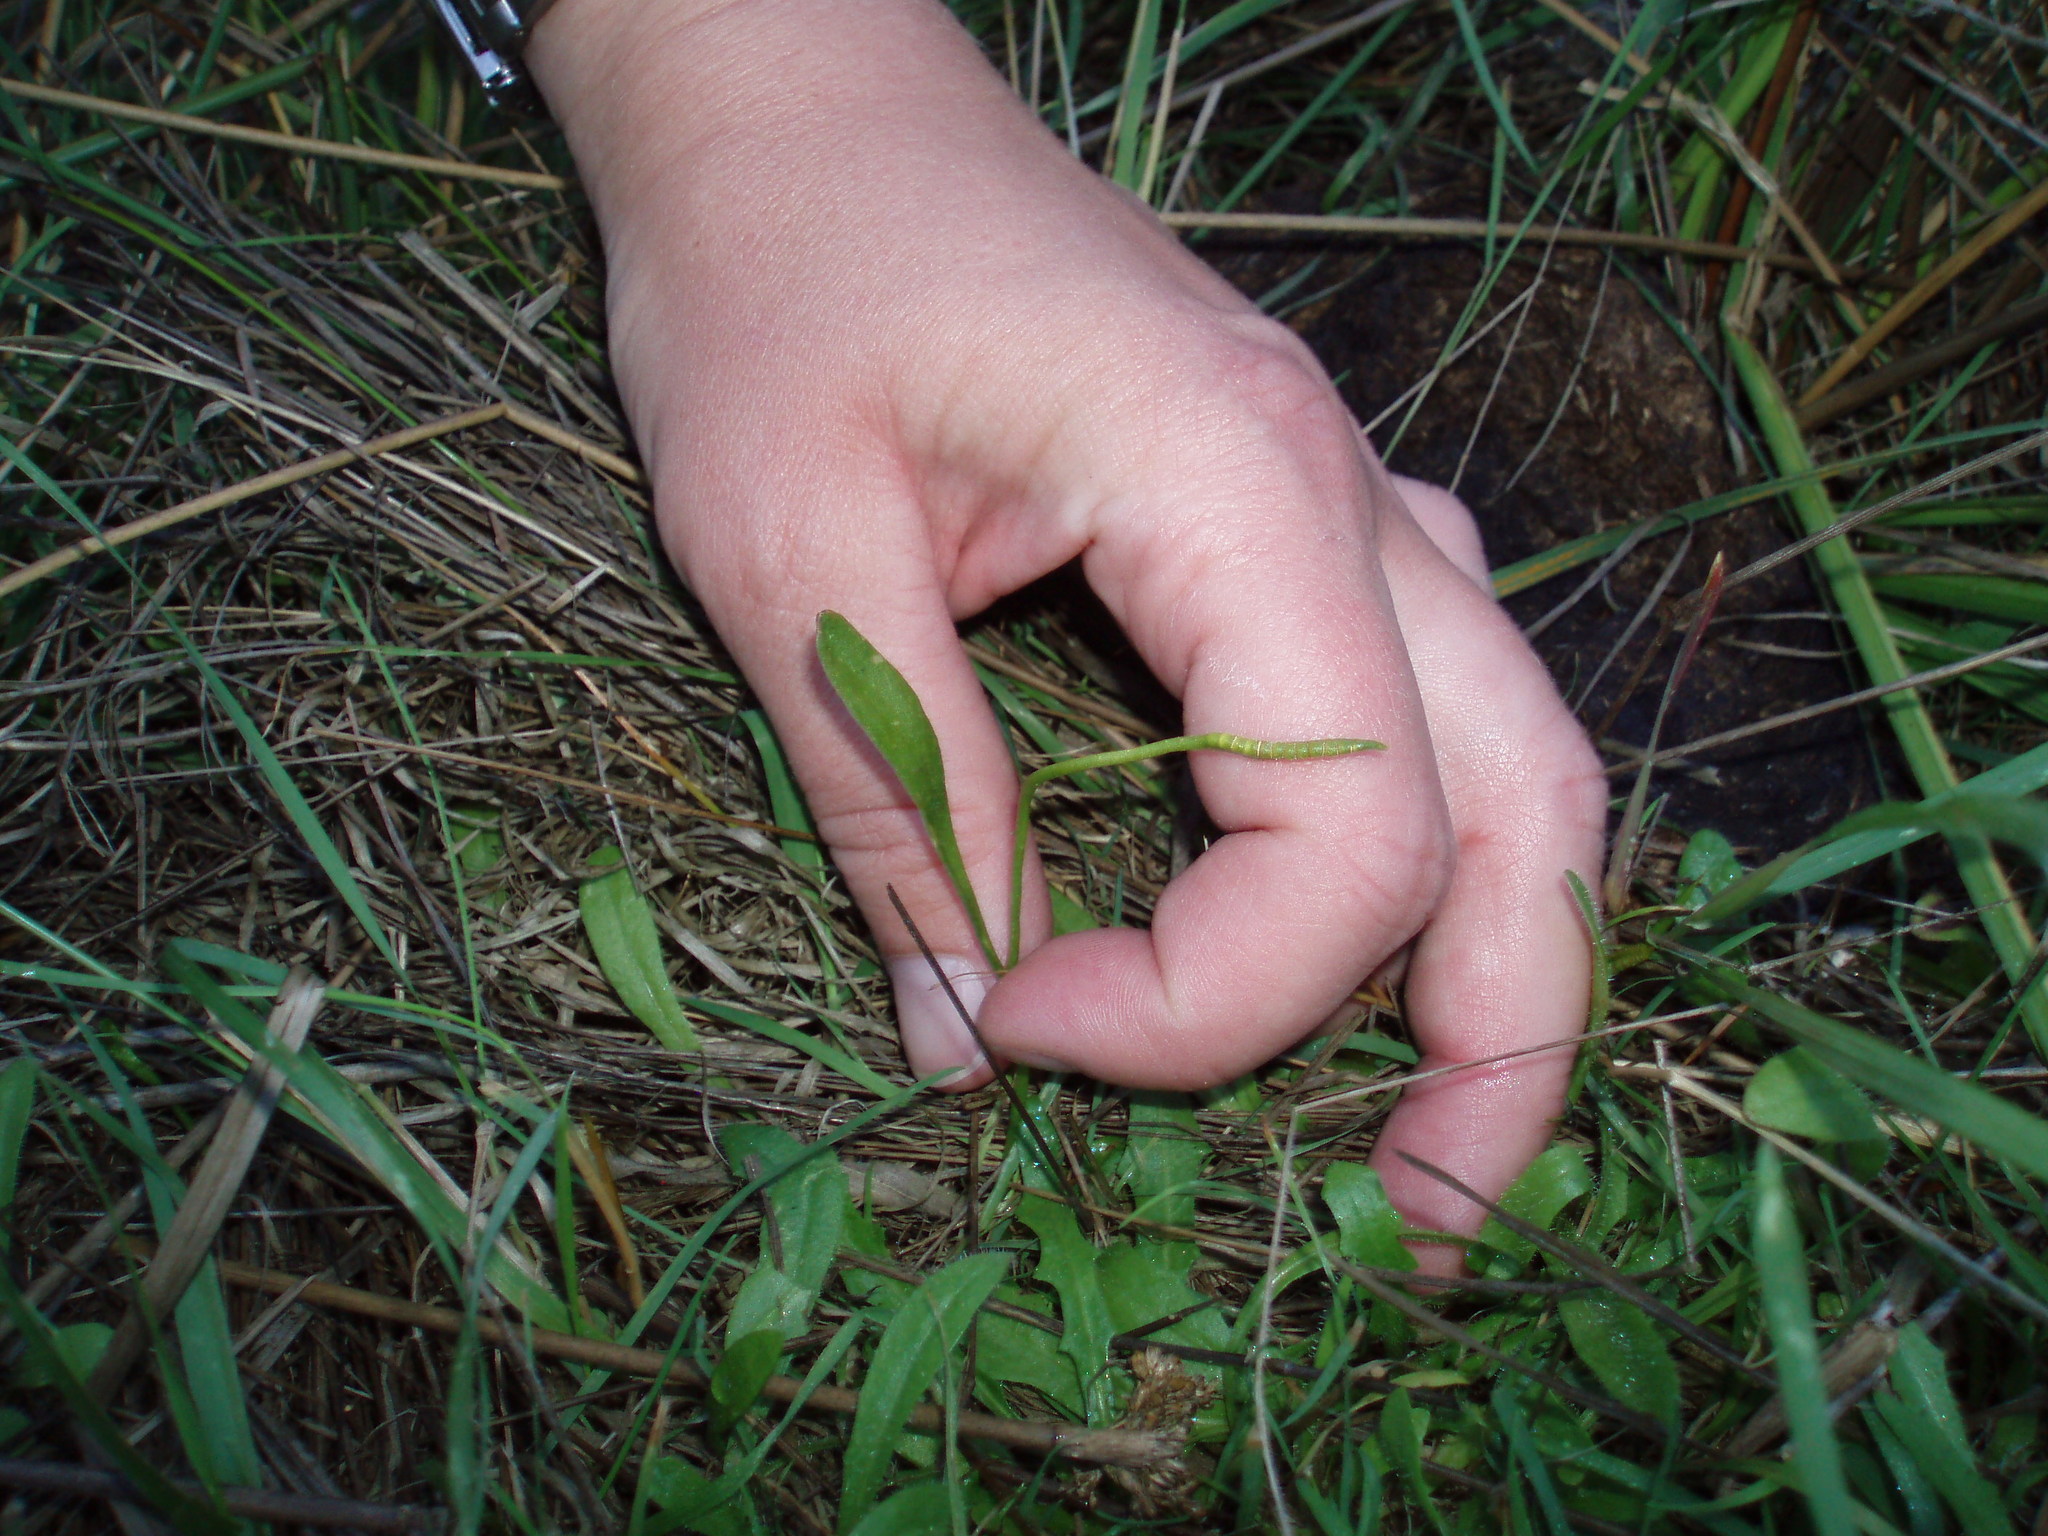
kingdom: Plantae
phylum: Tracheophyta
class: Polypodiopsida
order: Ophioglossales
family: Ophioglossaceae
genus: Ophioglossum
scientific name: Ophioglossum coriaceum
